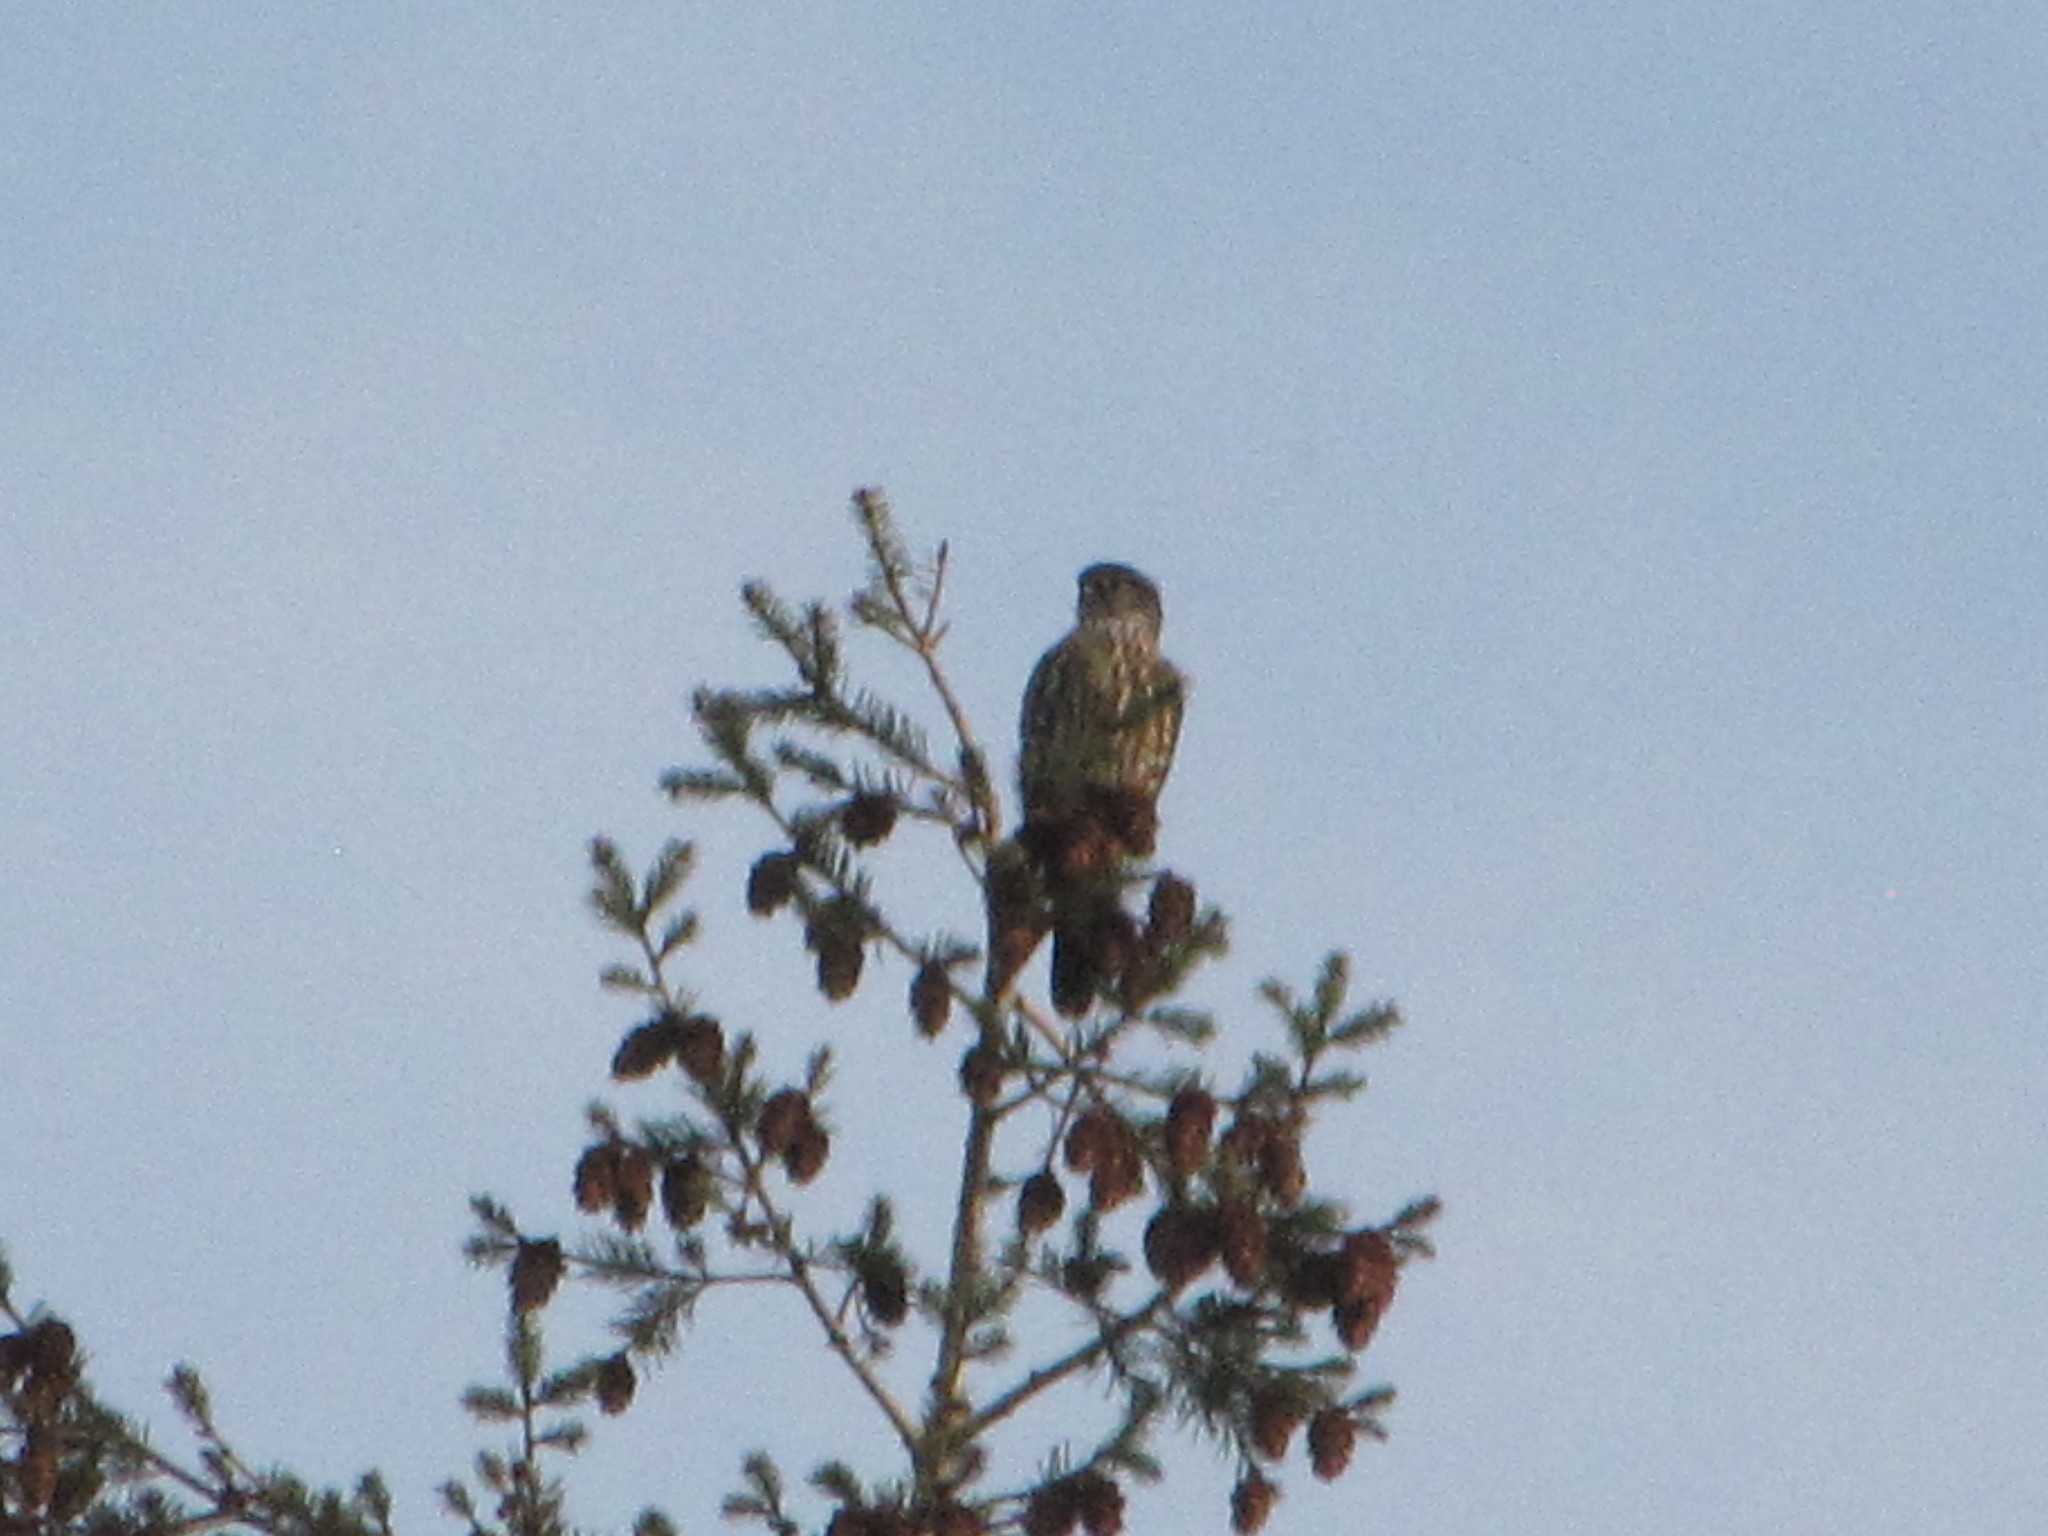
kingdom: Animalia
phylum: Chordata
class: Aves
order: Falconiformes
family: Falconidae
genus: Falco
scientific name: Falco columbarius
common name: Merlin
